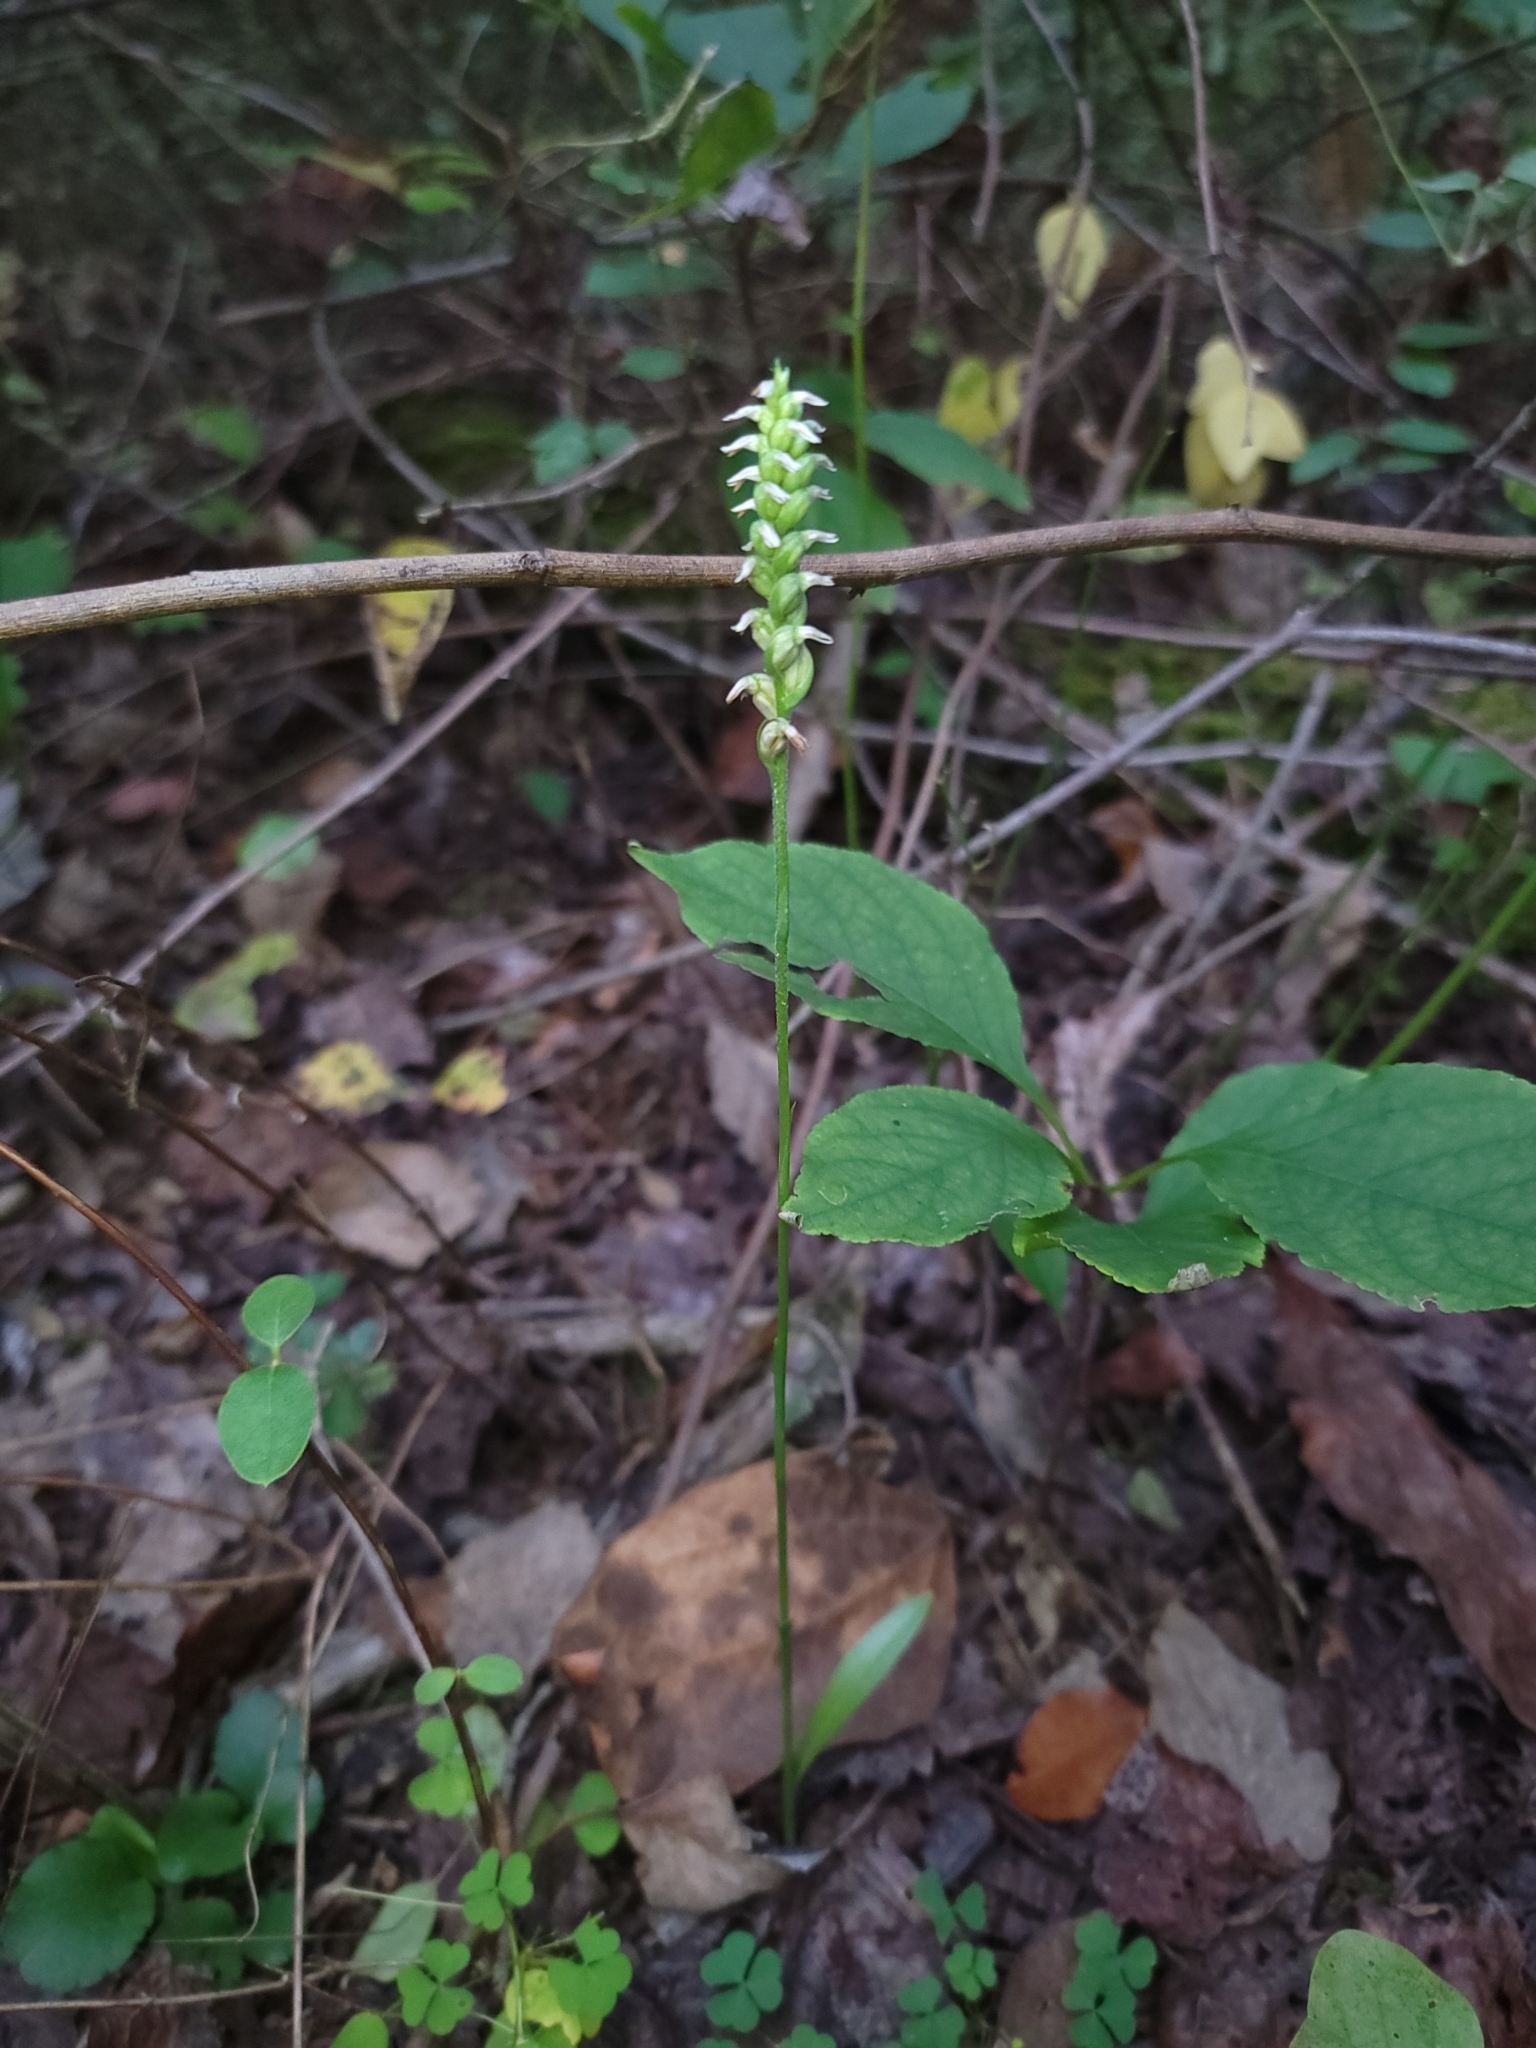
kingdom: Plantae
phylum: Tracheophyta
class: Liliopsida
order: Asparagales
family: Orchidaceae
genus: Spiranthes
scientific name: Spiranthes ovalis
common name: October ladies'-tresses
